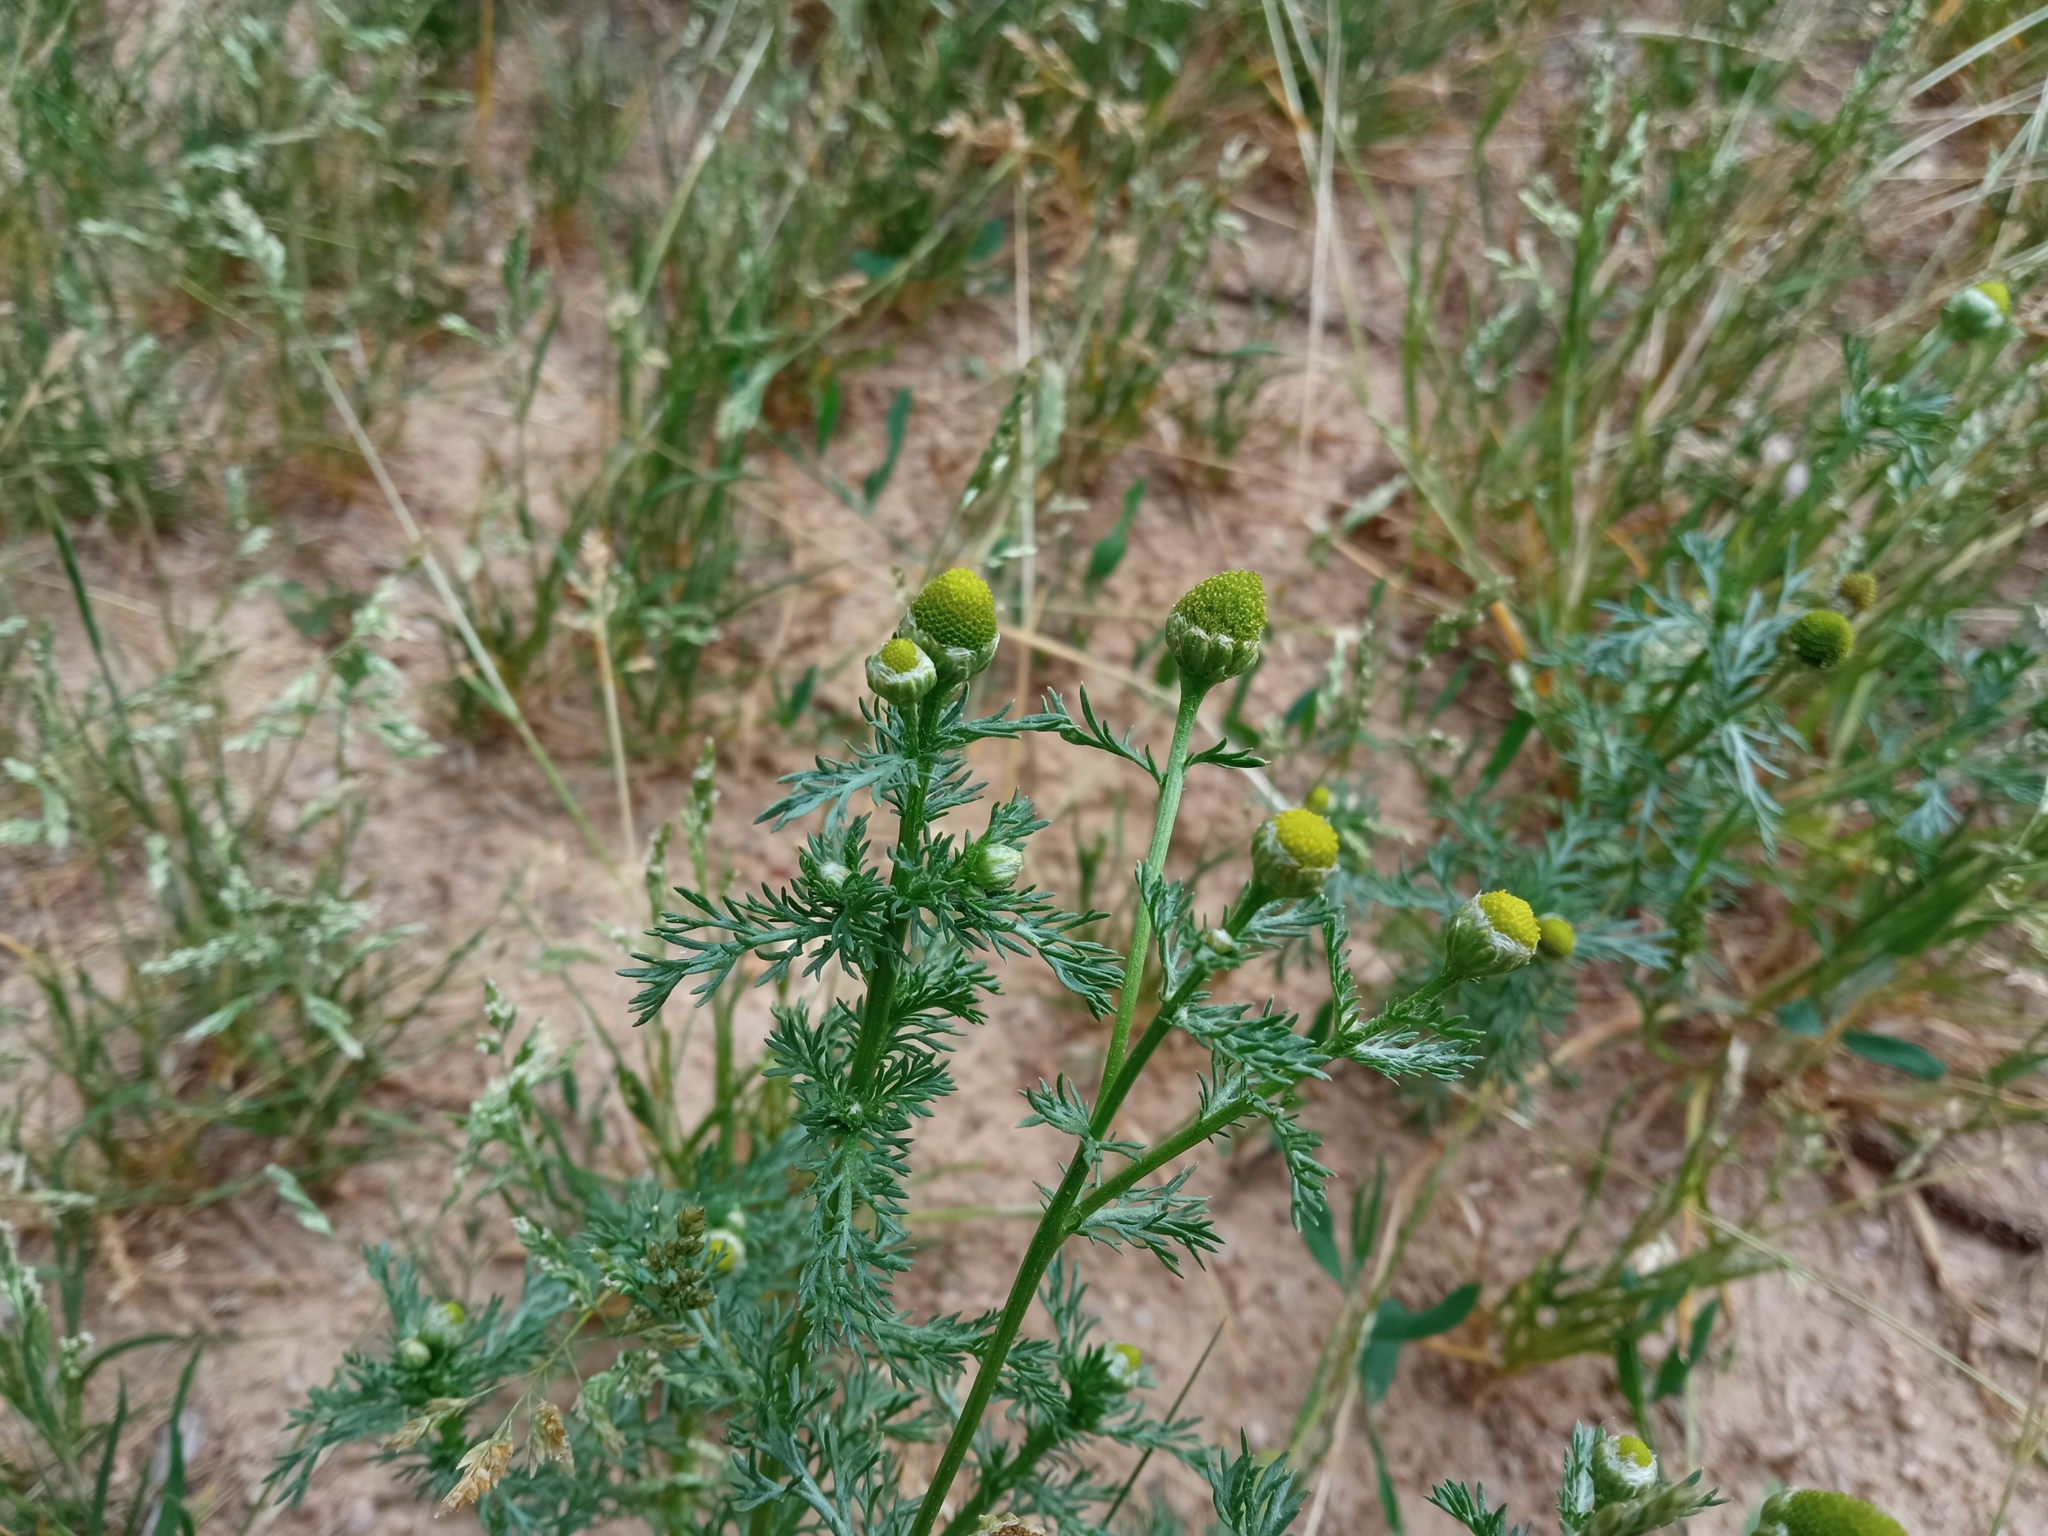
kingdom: Plantae
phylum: Tracheophyta
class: Magnoliopsida
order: Asterales
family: Asteraceae
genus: Matricaria
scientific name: Matricaria discoidea
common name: Disc mayweed
